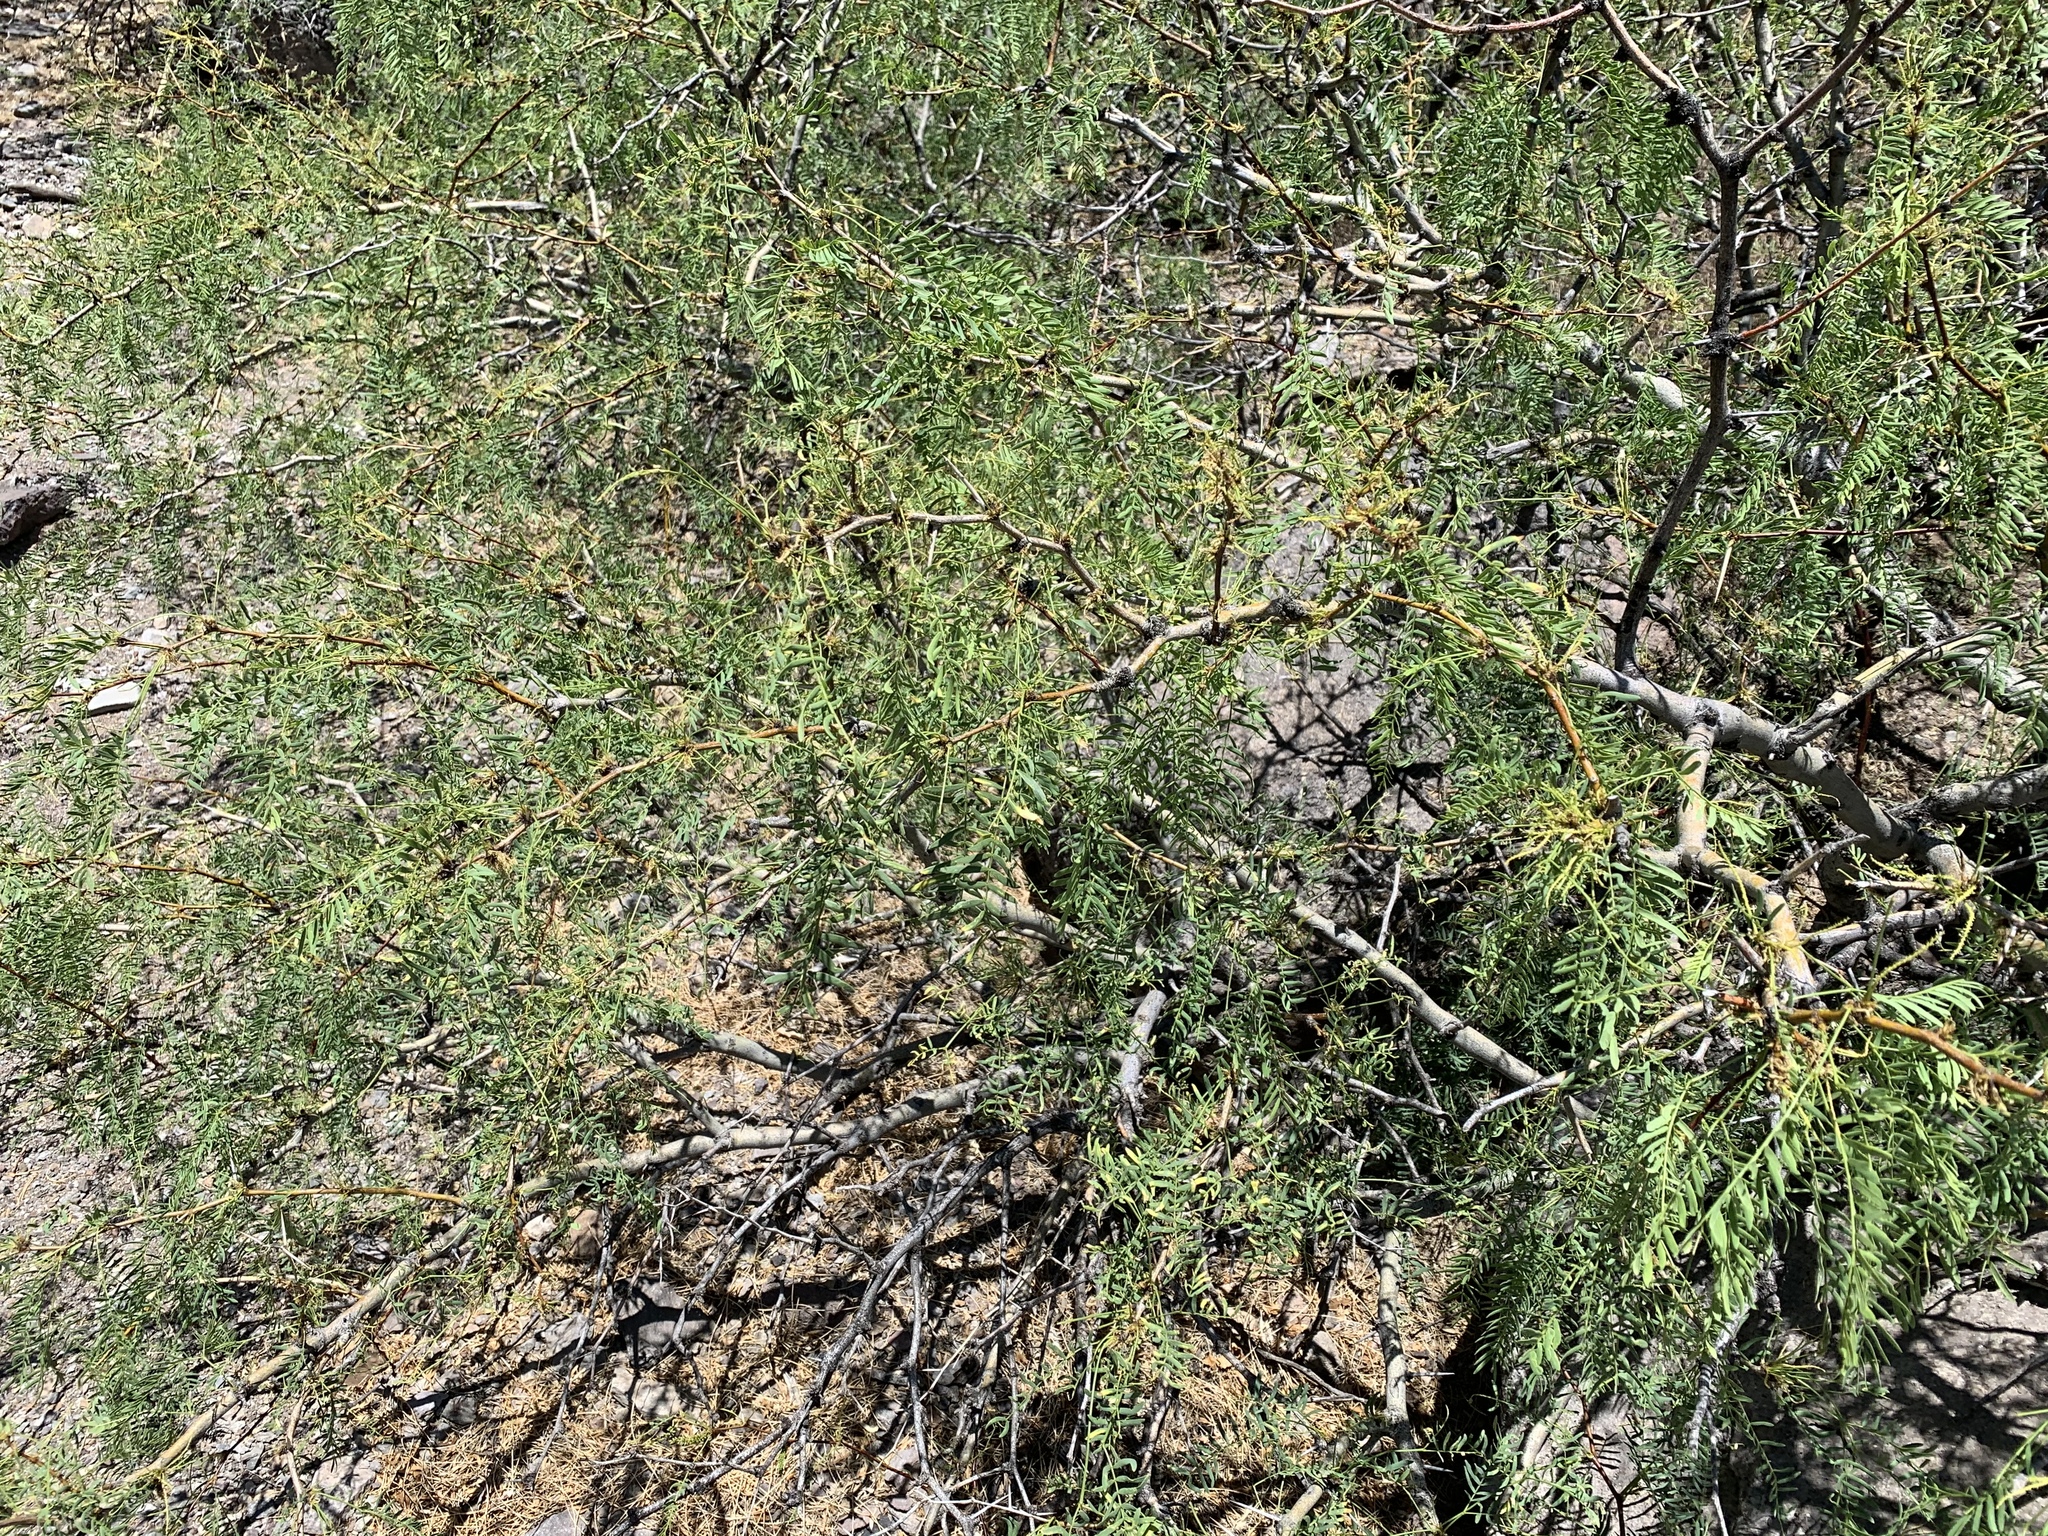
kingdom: Plantae
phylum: Tracheophyta
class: Magnoliopsida
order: Fabales
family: Fabaceae
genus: Prosopis
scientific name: Prosopis glandulosa
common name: Honey mesquite
